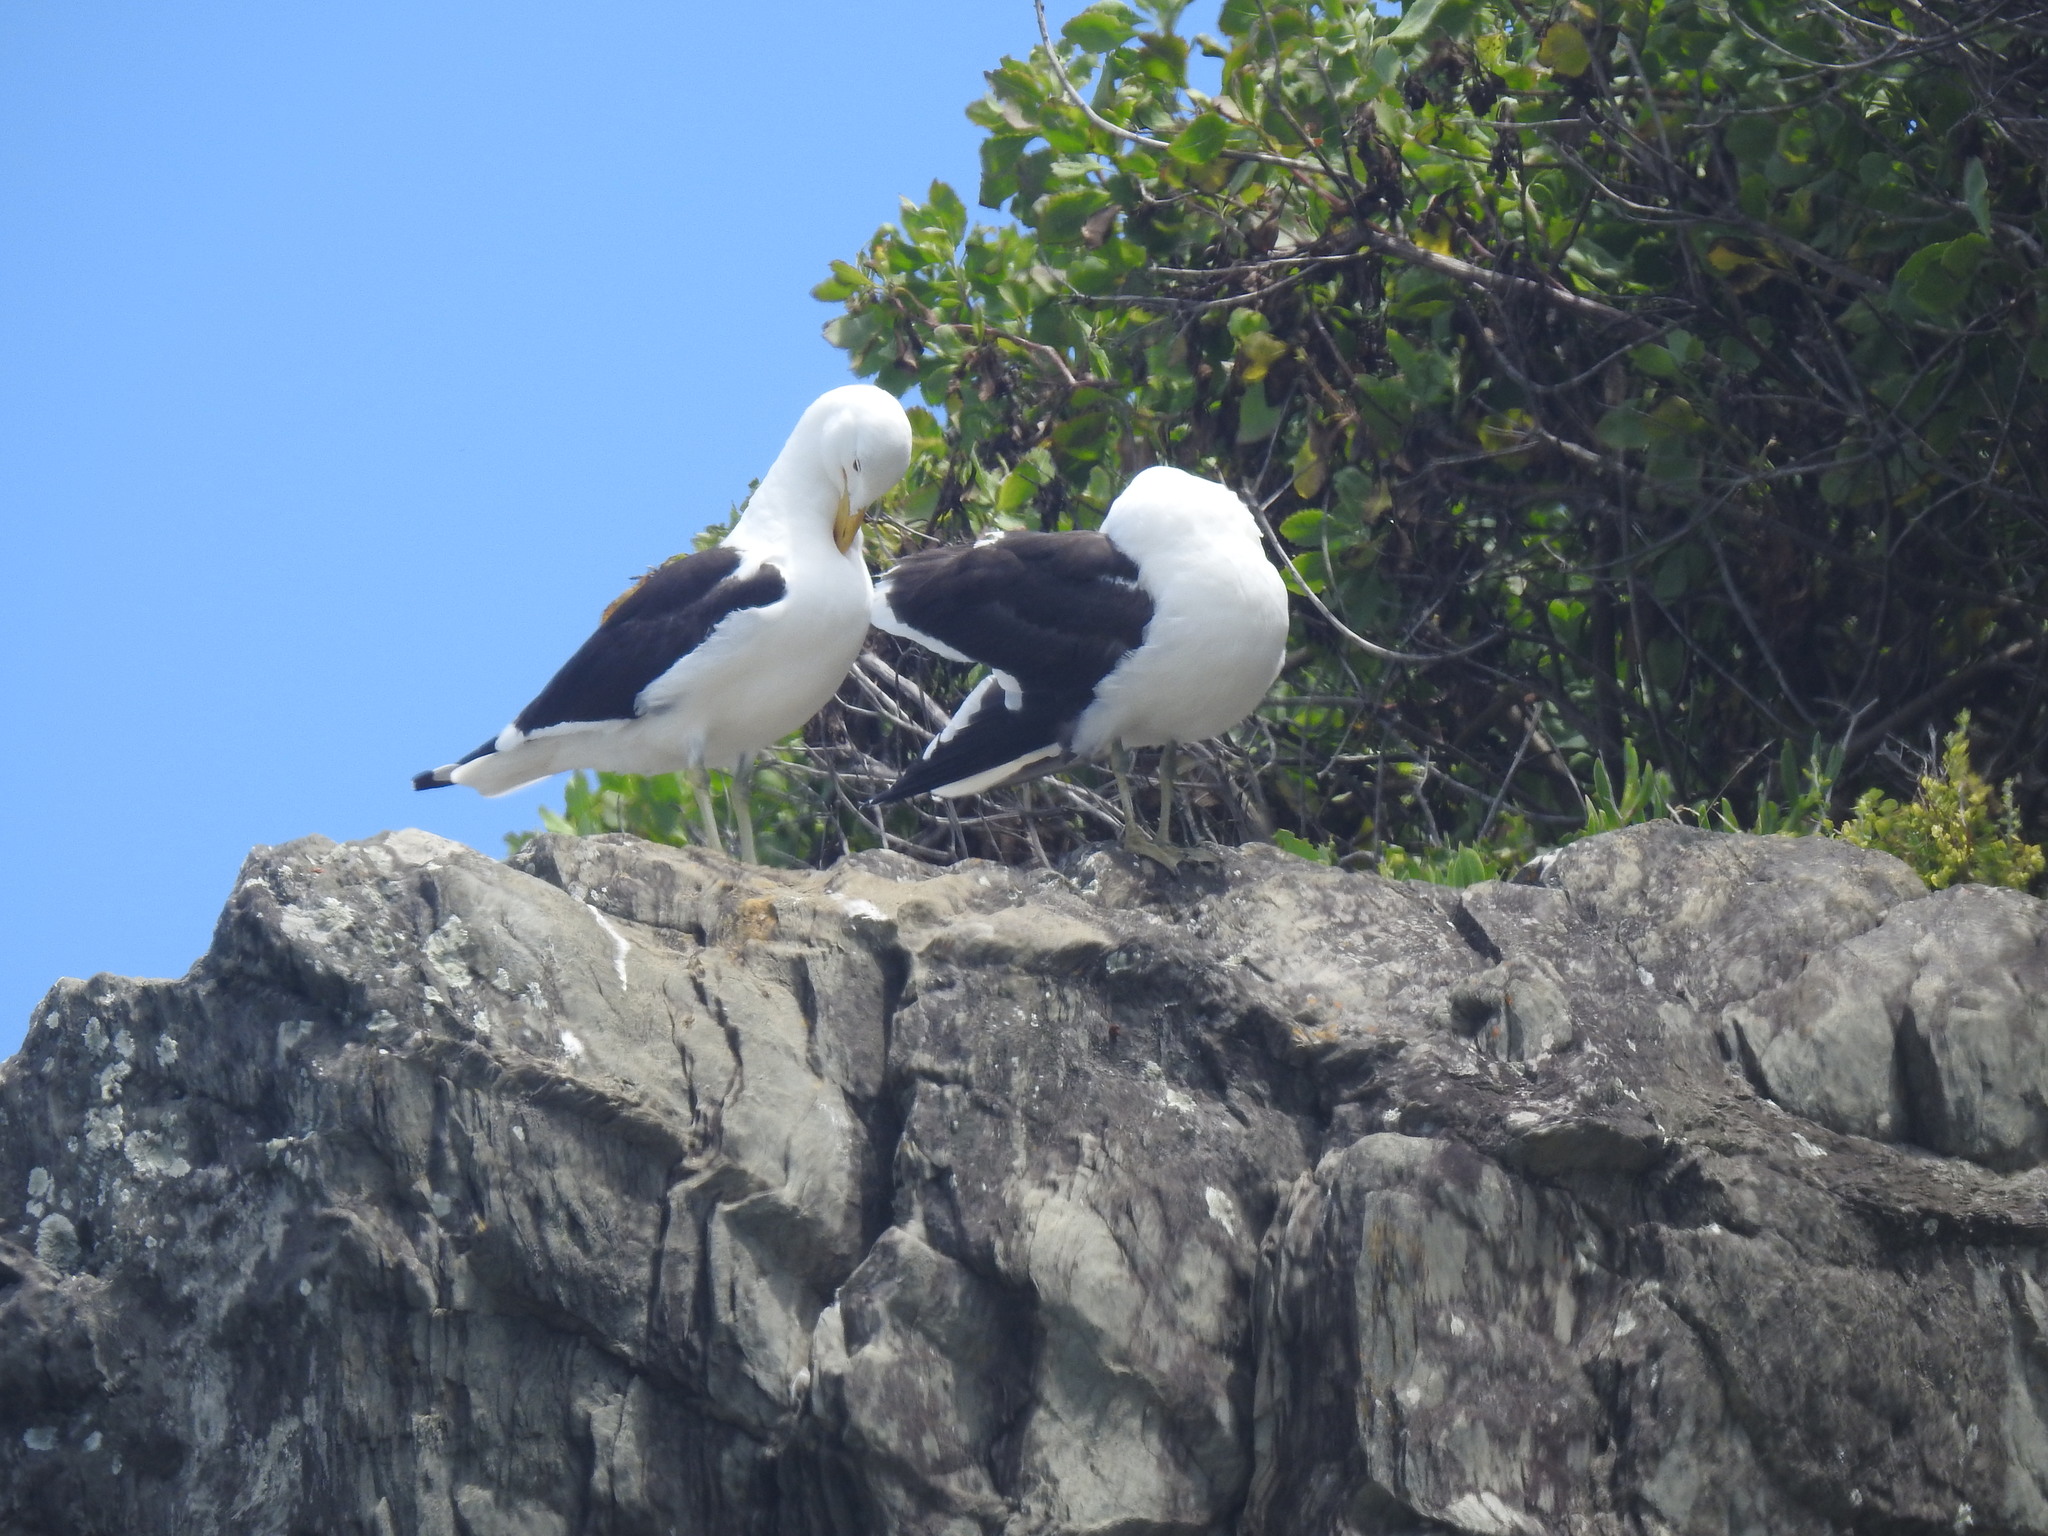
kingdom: Animalia
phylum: Chordata
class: Aves
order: Charadriiformes
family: Laridae
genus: Larus
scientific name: Larus dominicanus
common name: Kelp gull
